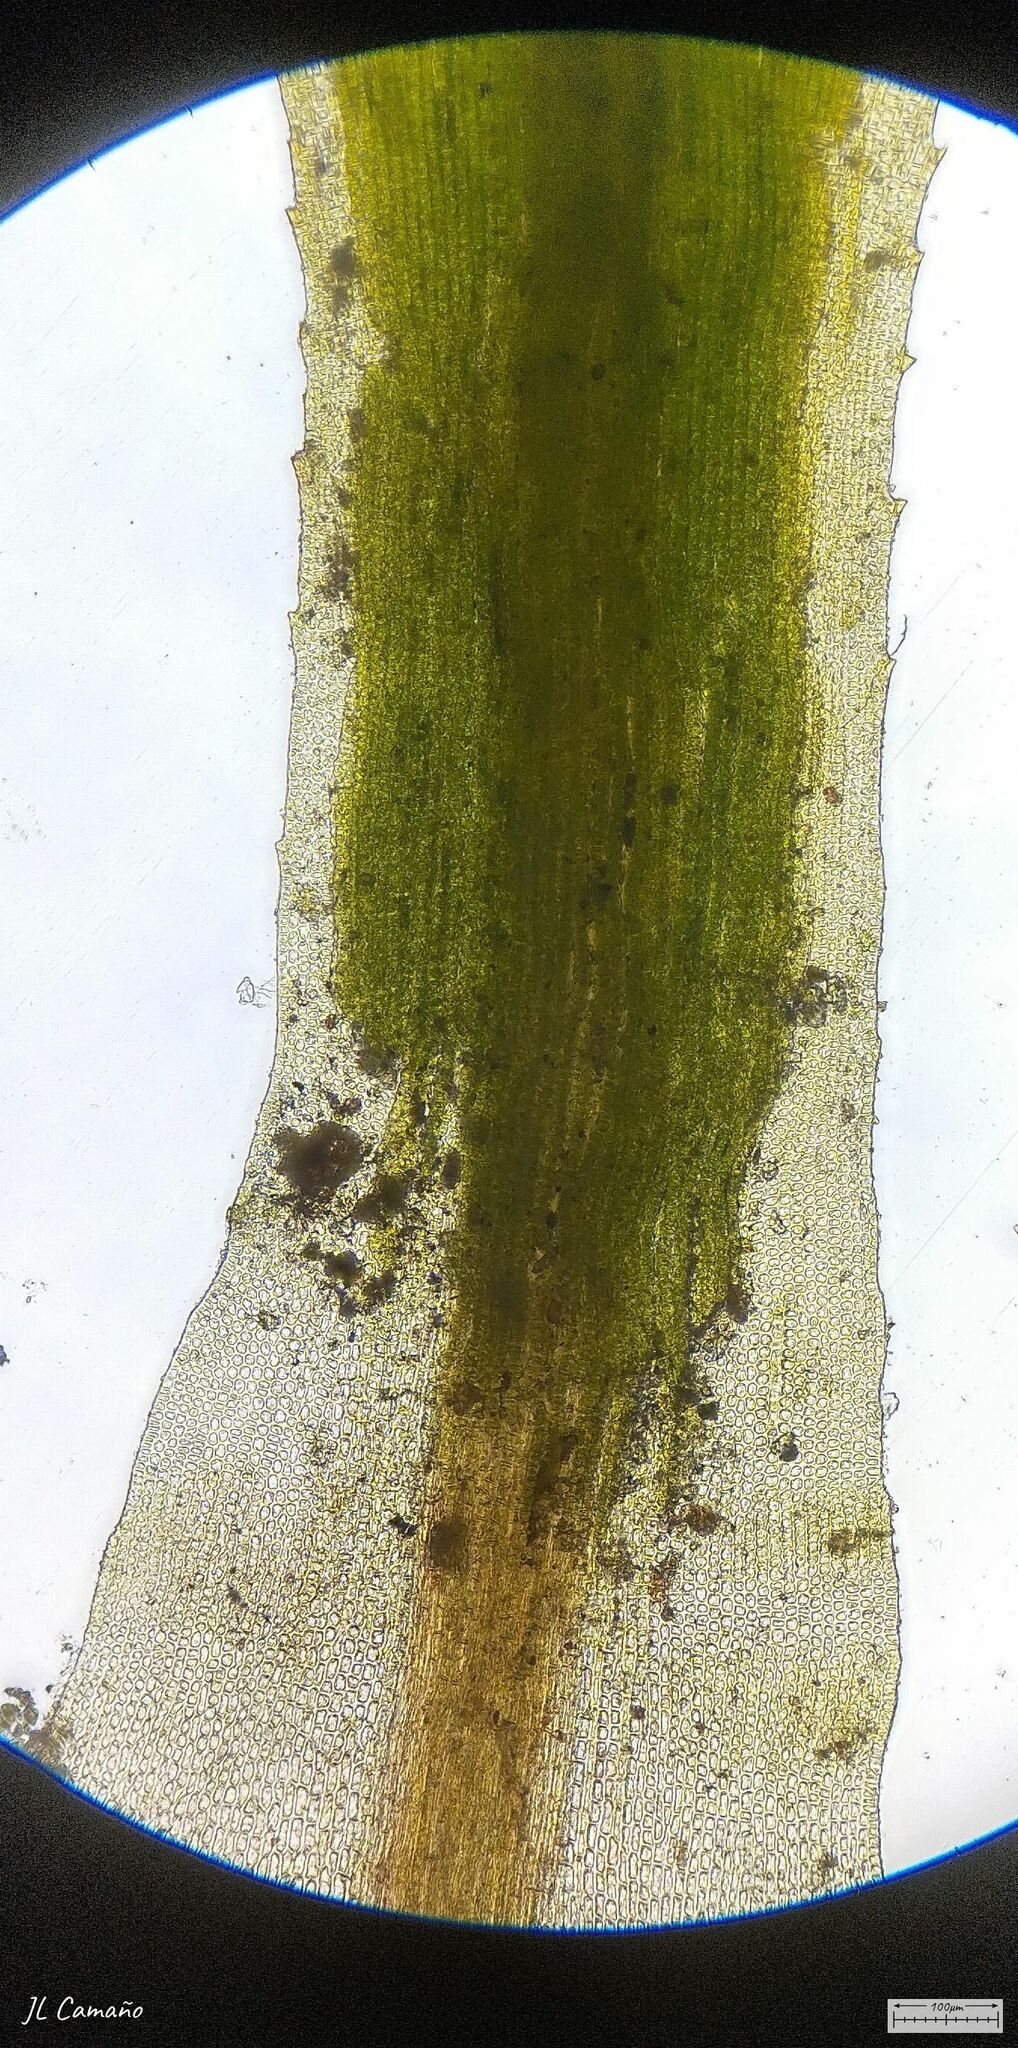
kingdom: Plantae
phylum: Bryophyta
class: Polytrichopsida
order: Polytrichales
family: Polytrichaceae
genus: Pogonatum
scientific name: Pogonatum aloides
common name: Aloe haircap
